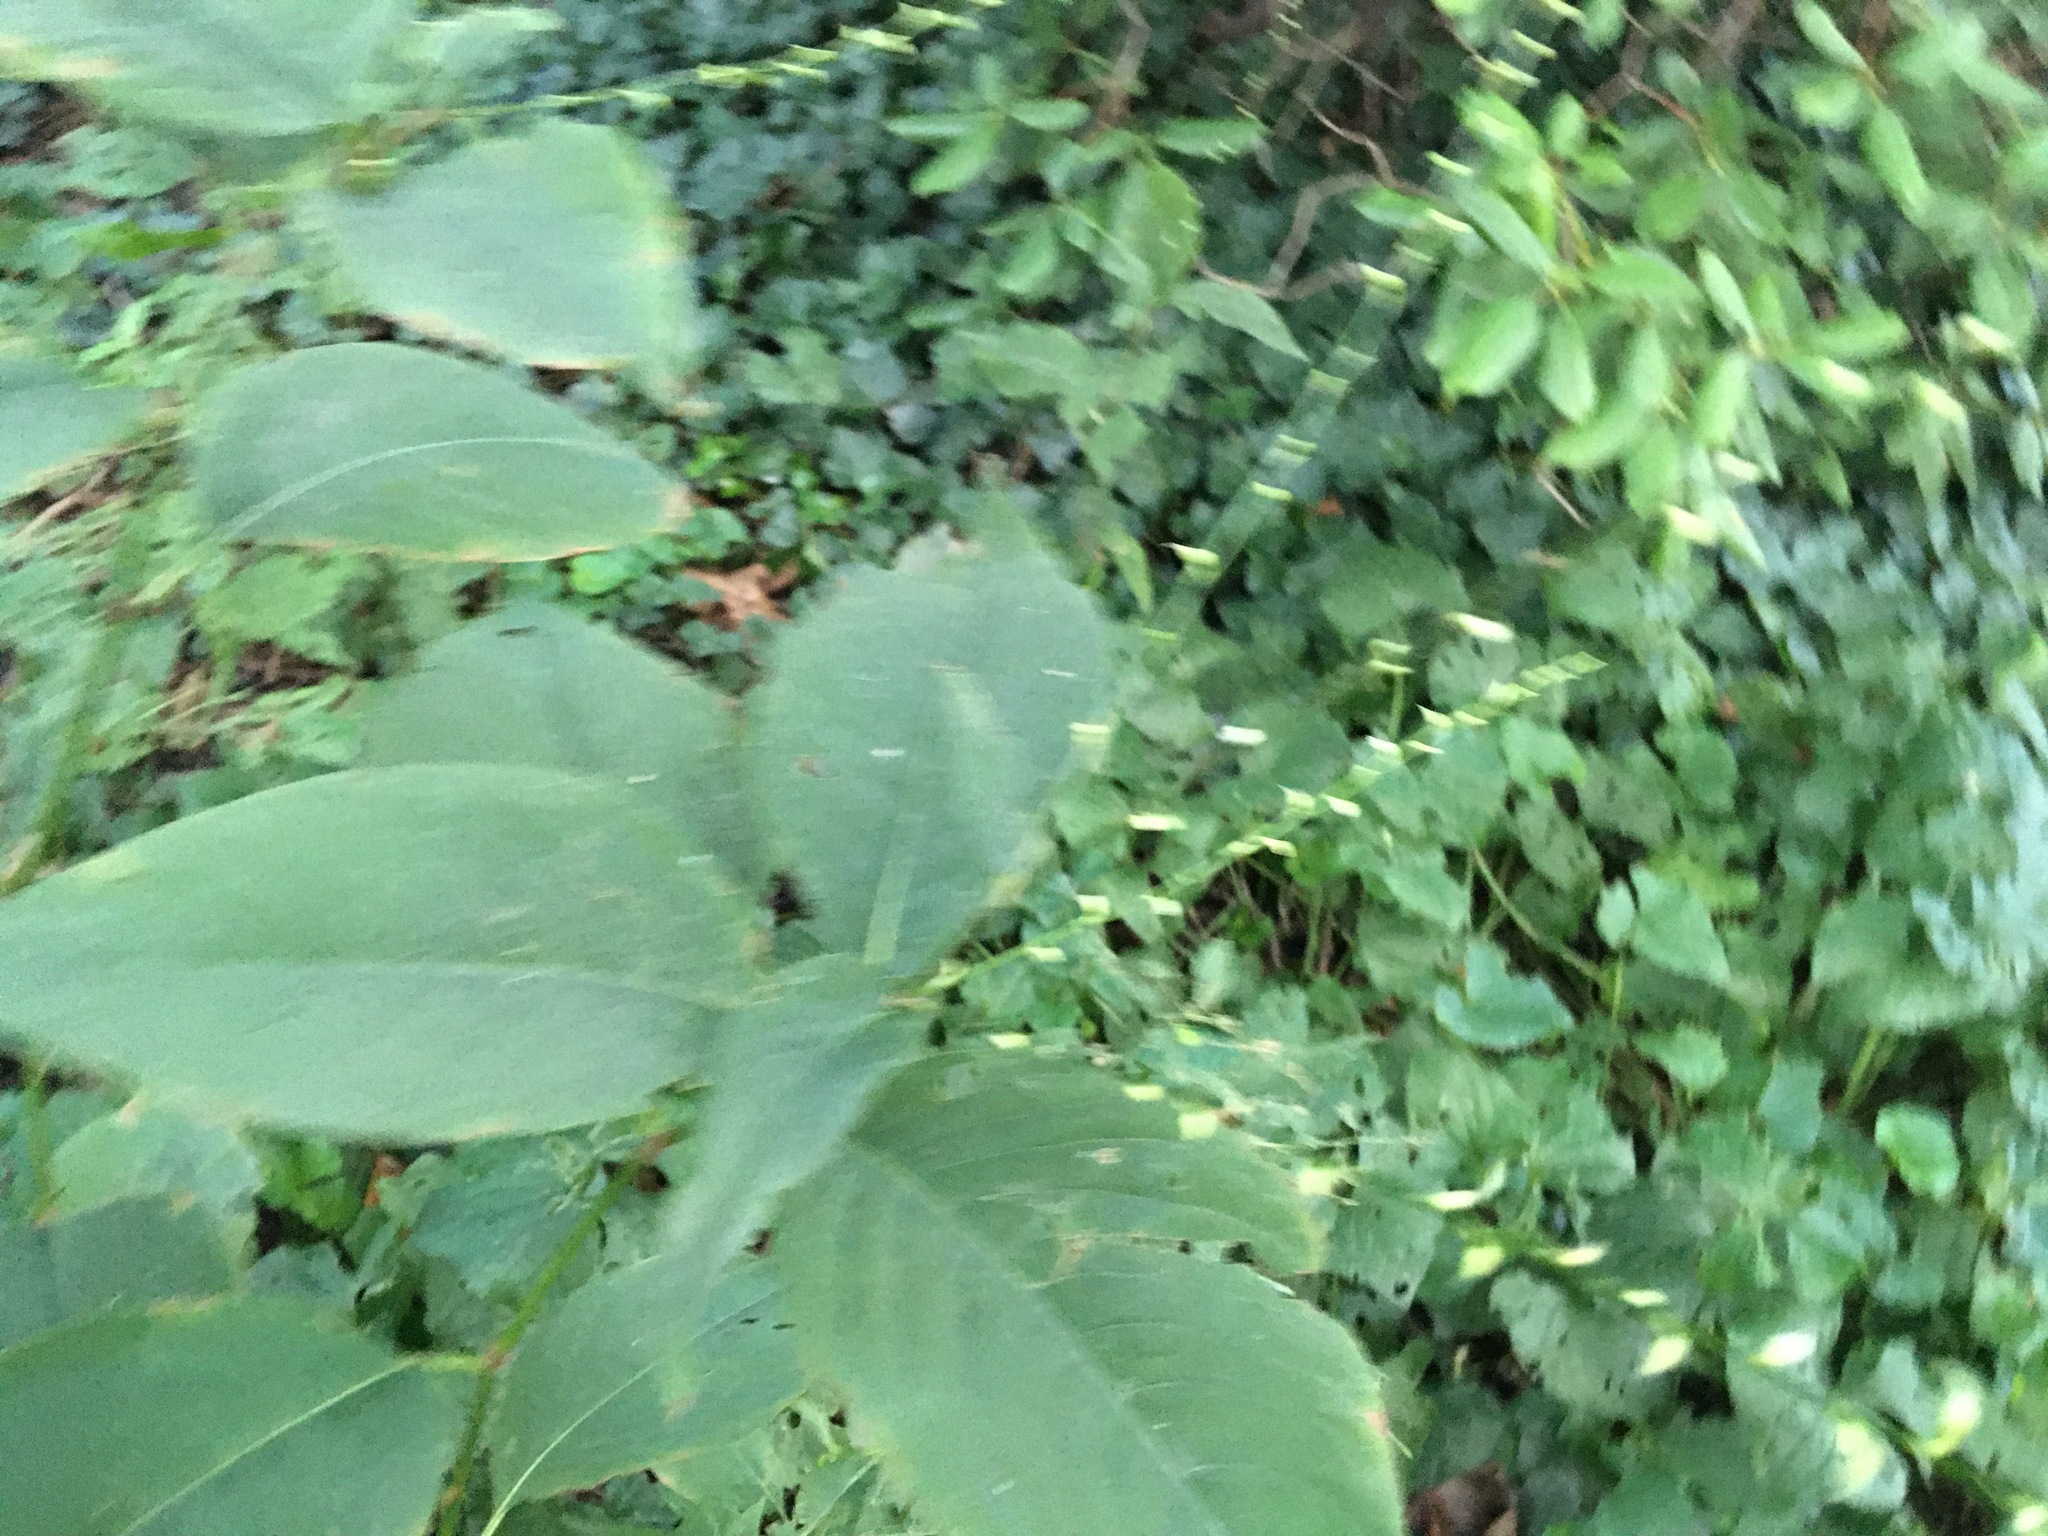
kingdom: Plantae
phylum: Tracheophyta
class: Magnoliopsida
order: Caryophyllales
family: Polygonaceae
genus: Persicaria
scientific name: Persicaria virginiana
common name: Jumpseed
